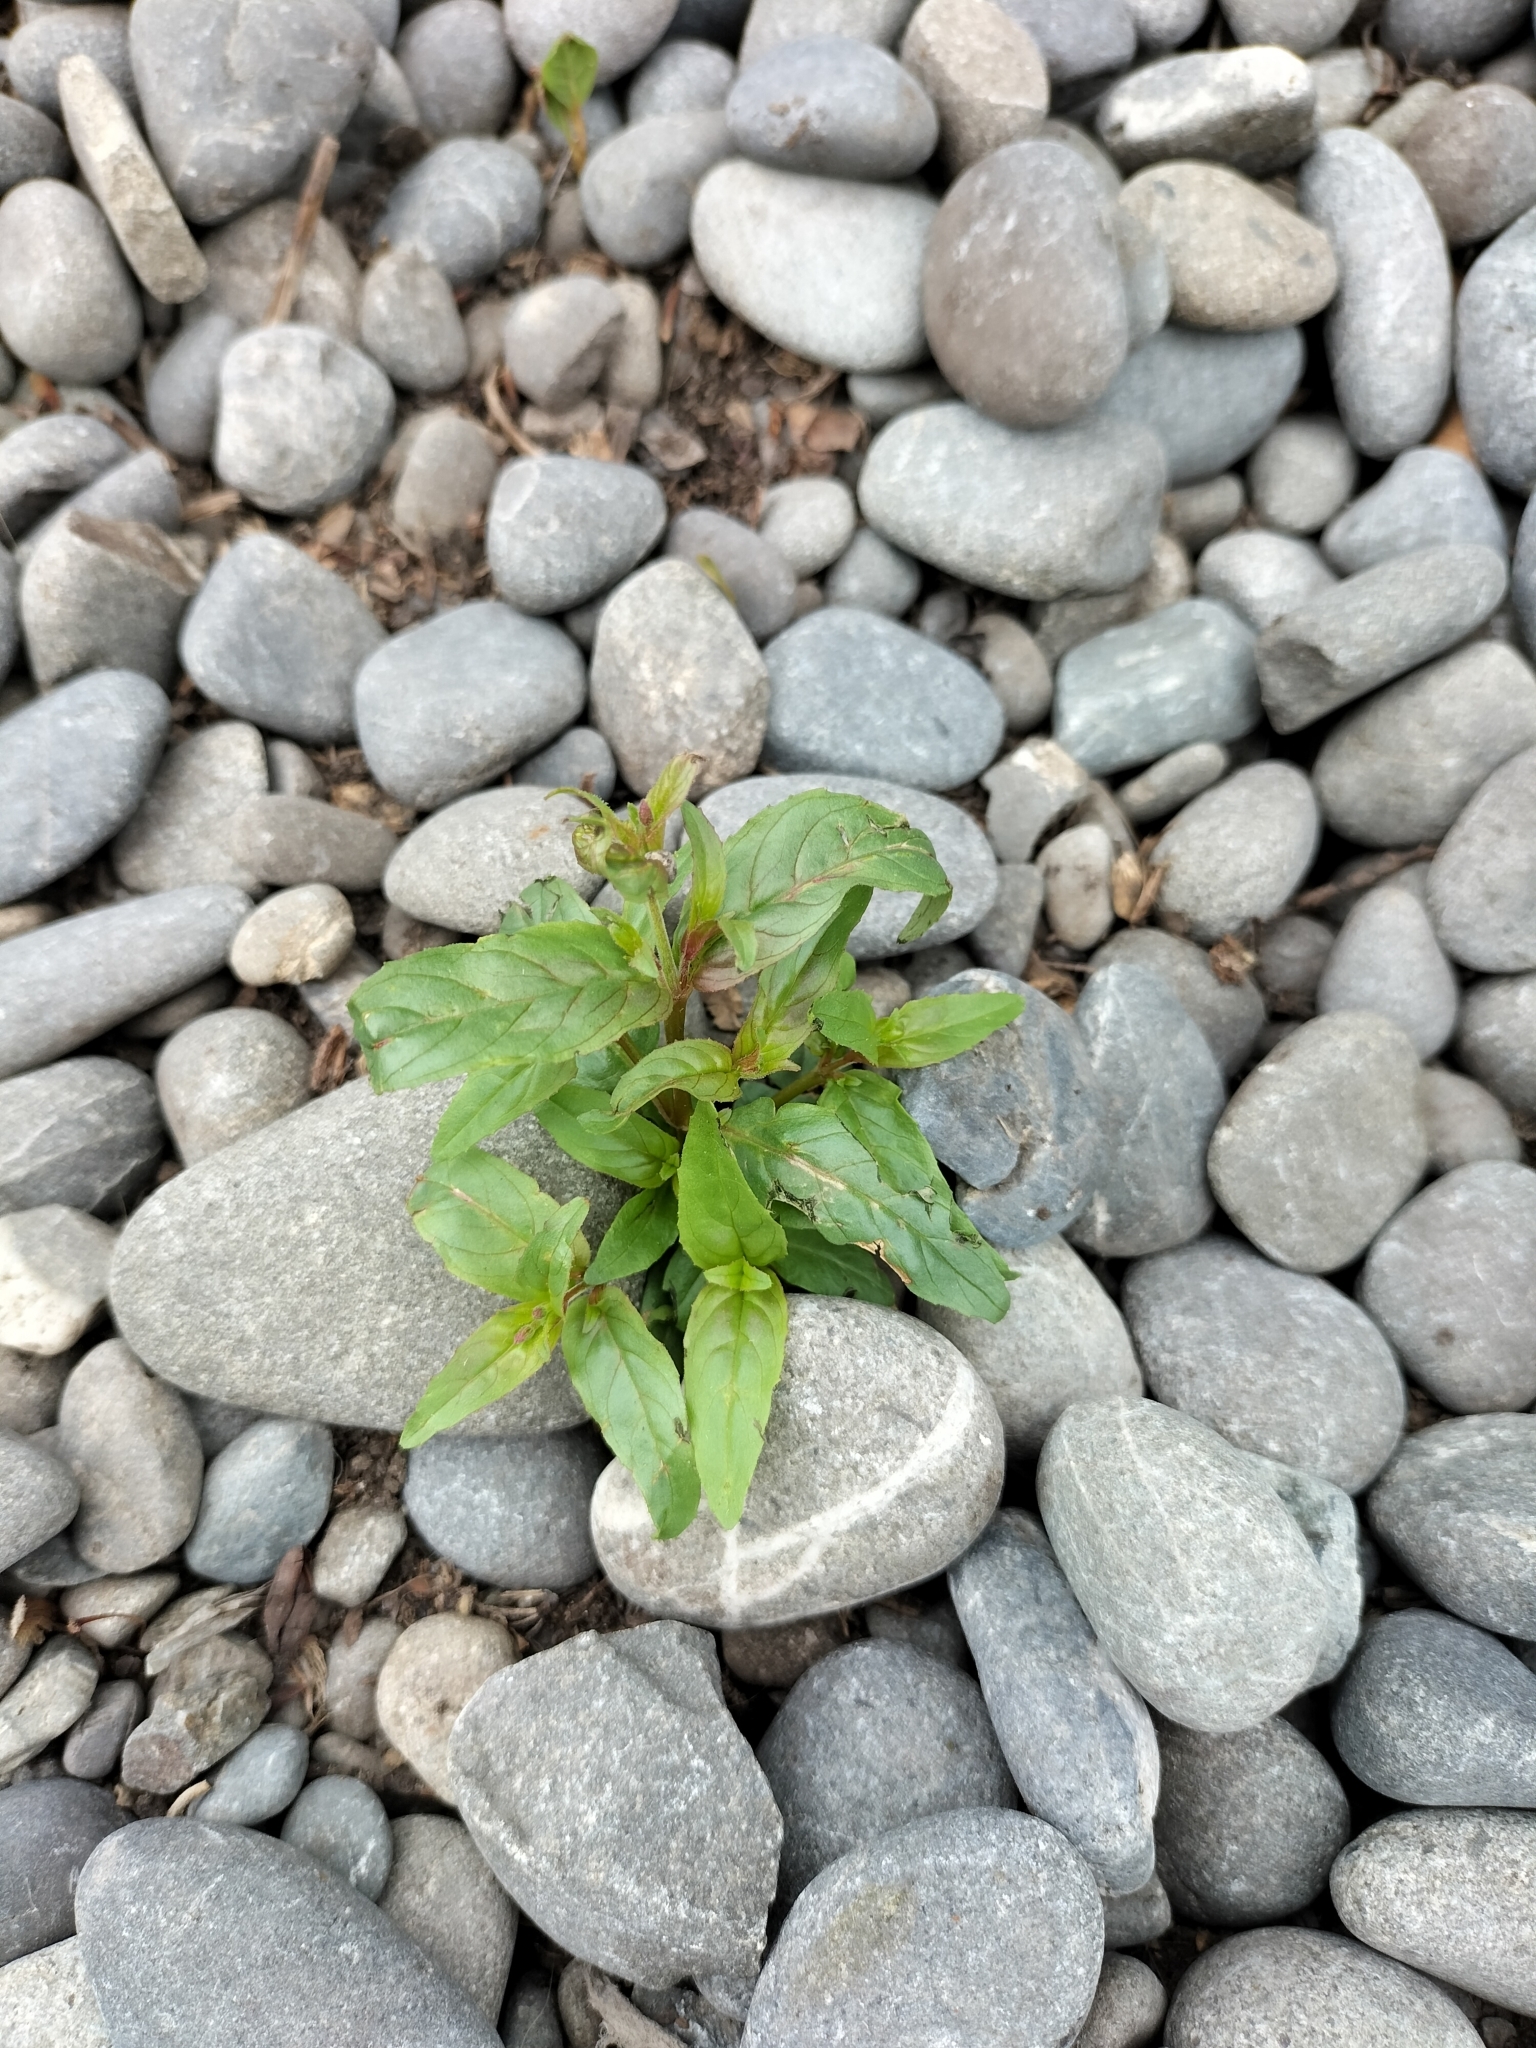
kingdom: Plantae
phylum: Tracheophyta
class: Magnoliopsida
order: Myrtales
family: Onagraceae
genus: Epilobium
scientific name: Epilobium ciliatum
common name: American willowherb
